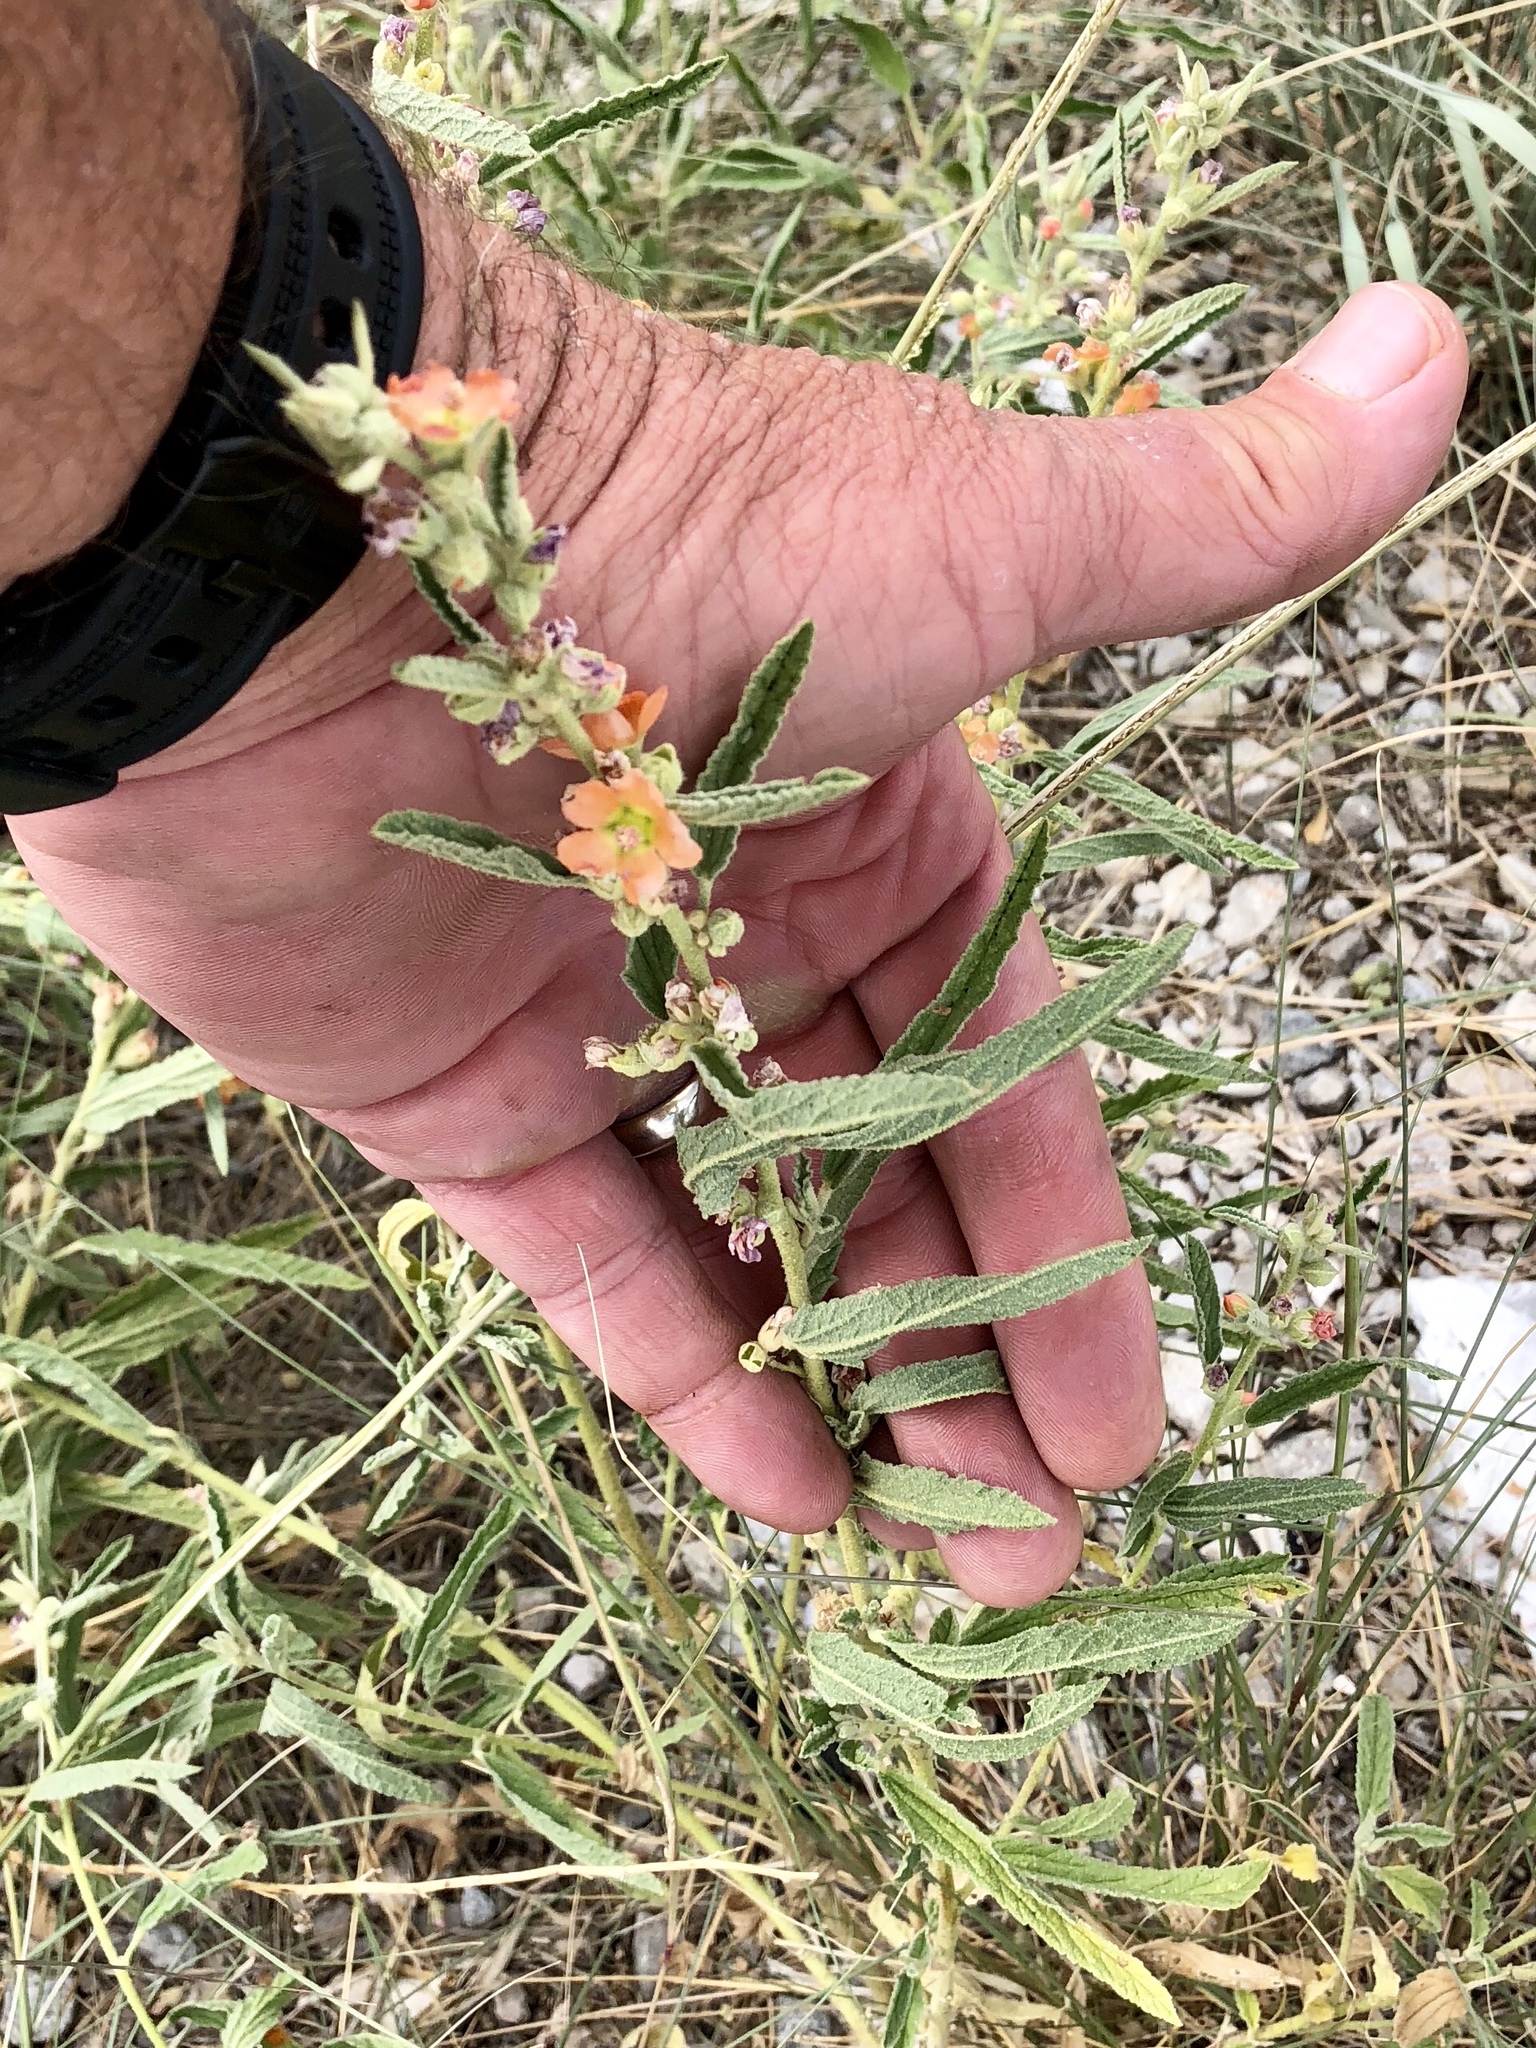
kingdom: Plantae
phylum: Tracheophyta
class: Magnoliopsida
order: Malvales
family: Malvaceae
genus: Sphaeralcea
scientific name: Sphaeralcea angustifolia
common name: Copper globe-mallow
